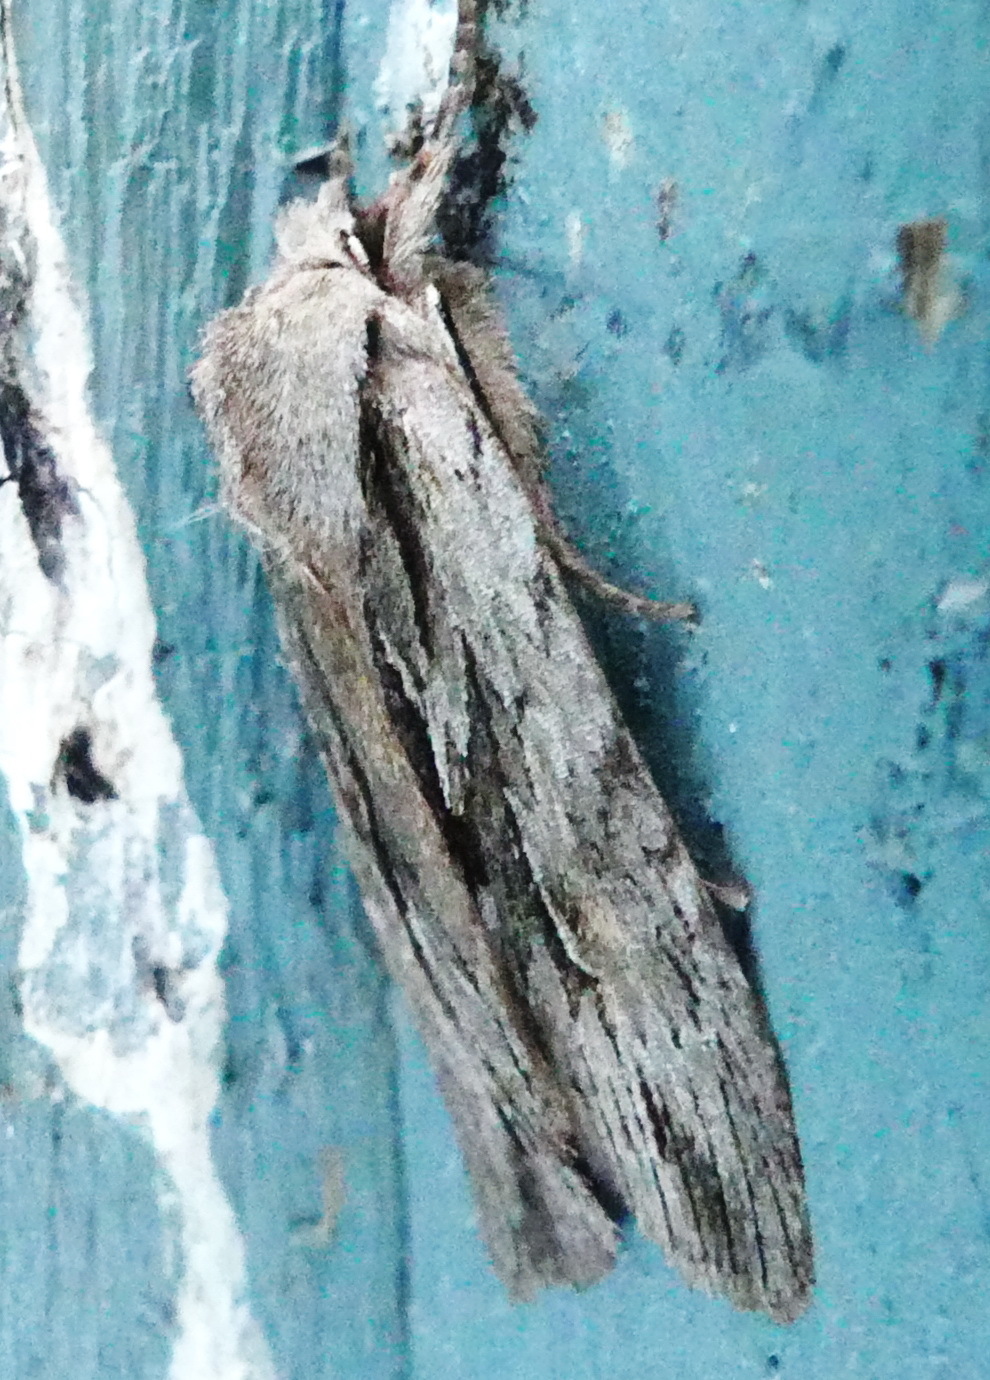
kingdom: Animalia
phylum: Arthropoda
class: Insecta
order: Lepidoptera
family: Noctuidae
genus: Lithophane
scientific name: Lithophane thujae
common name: Cedar pinion moth
